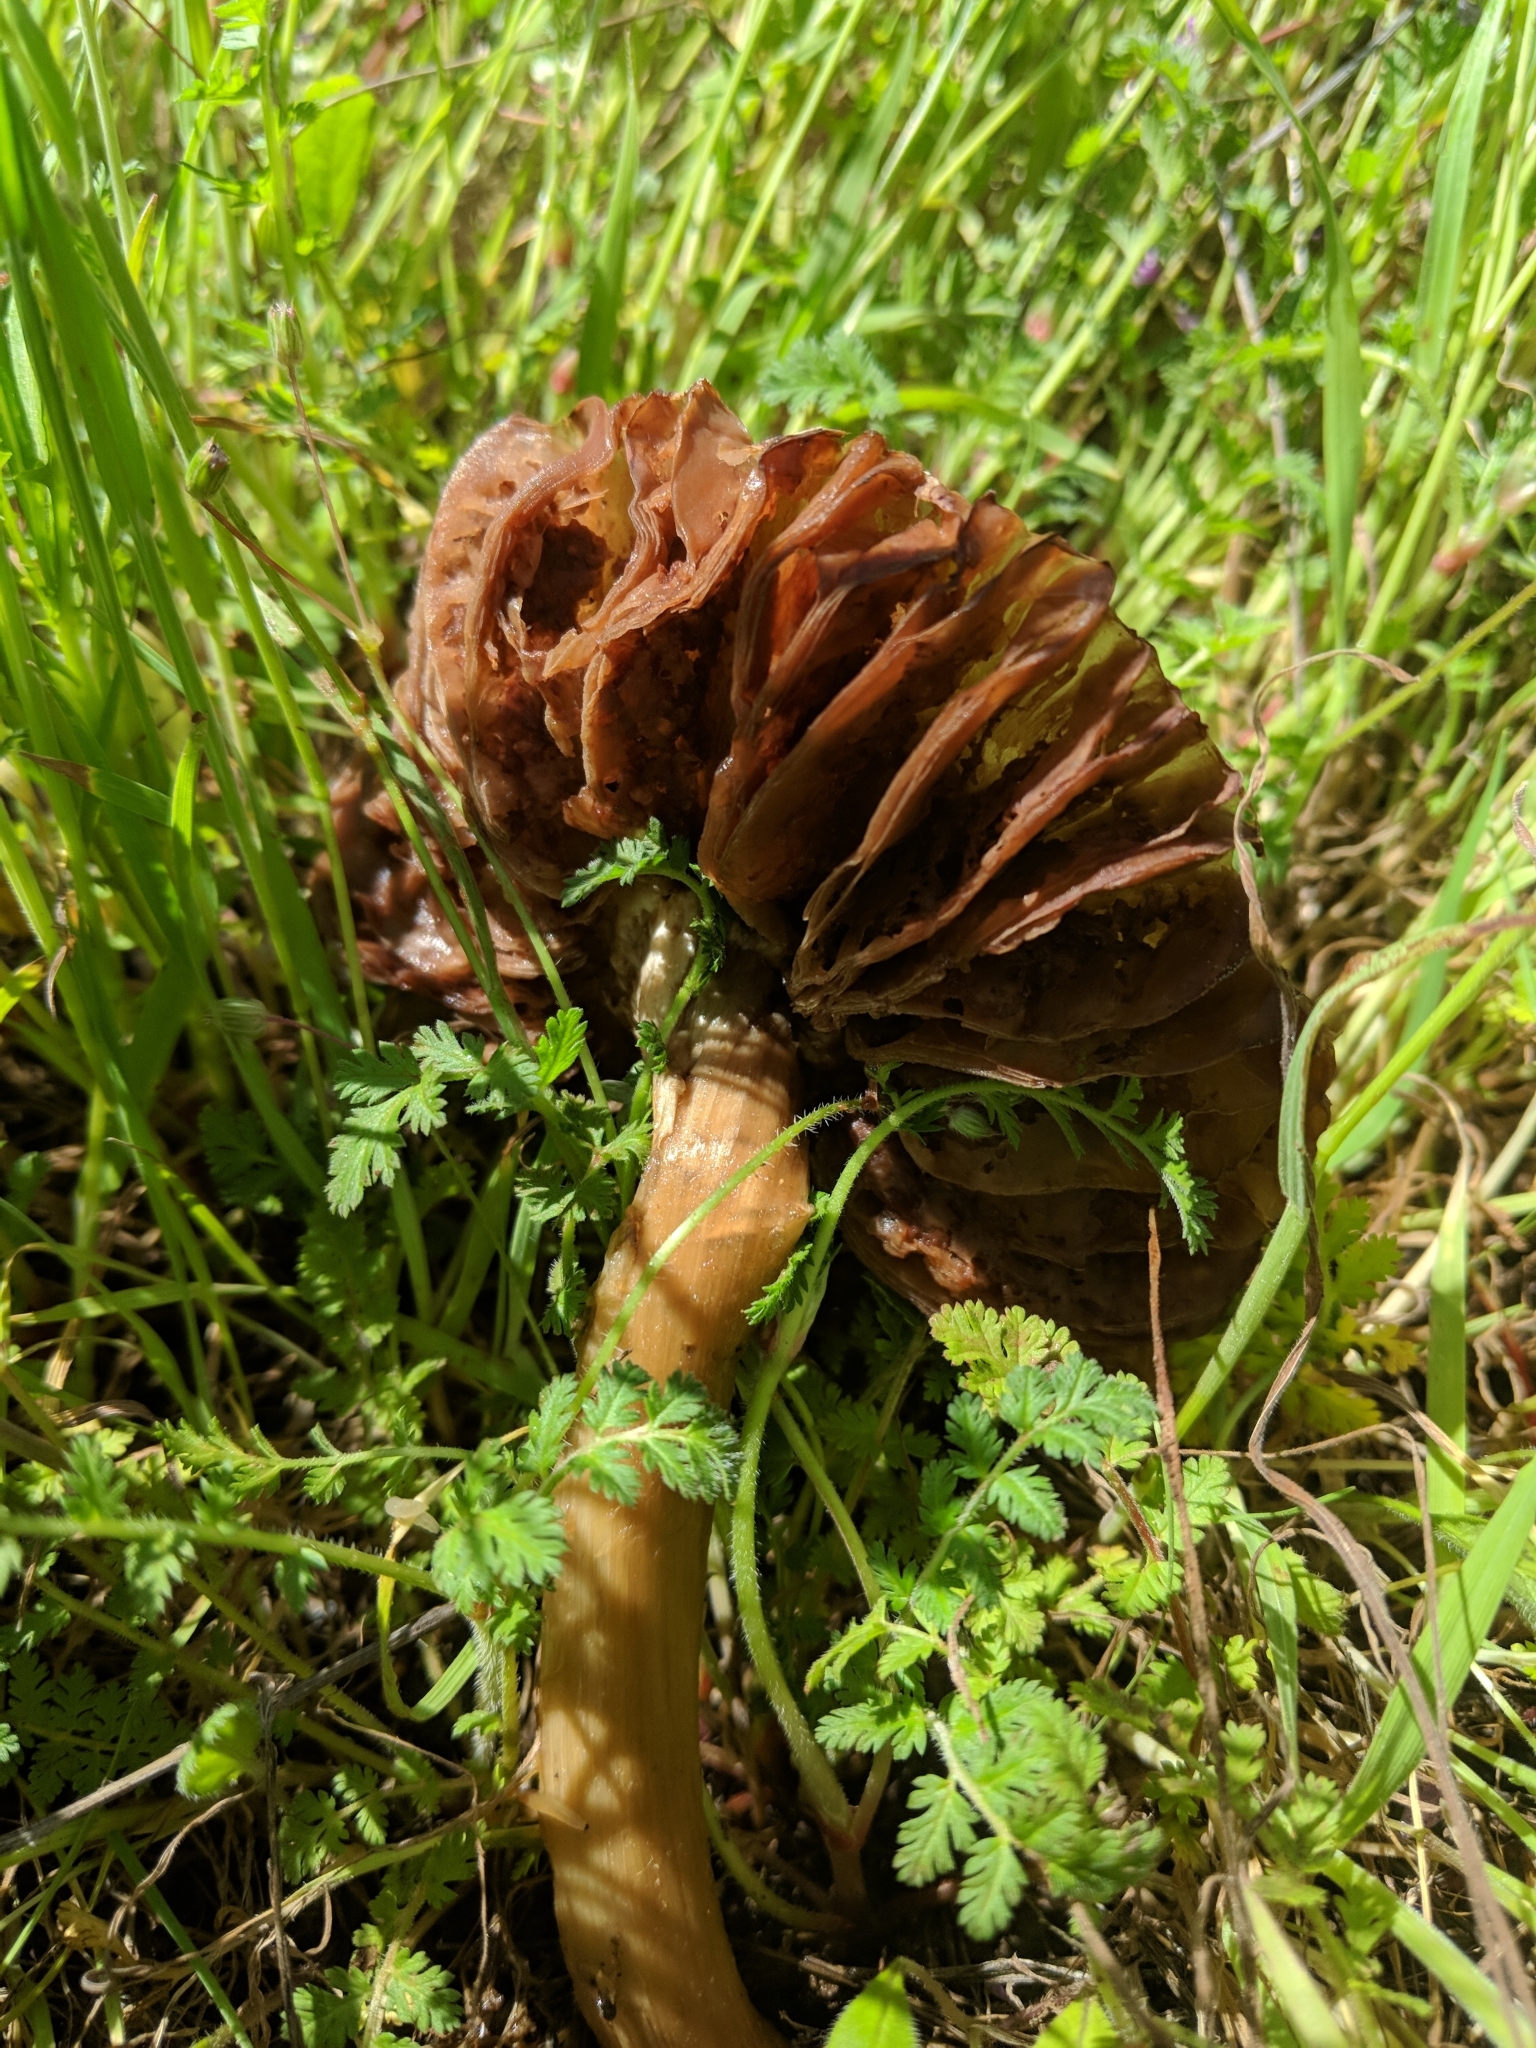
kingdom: Fungi
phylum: Basidiomycota
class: Agaricomycetes
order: Agaricales
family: Pluteaceae
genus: Volvopluteus
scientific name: Volvopluteus gloiocephalus
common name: Stubble rosegill
